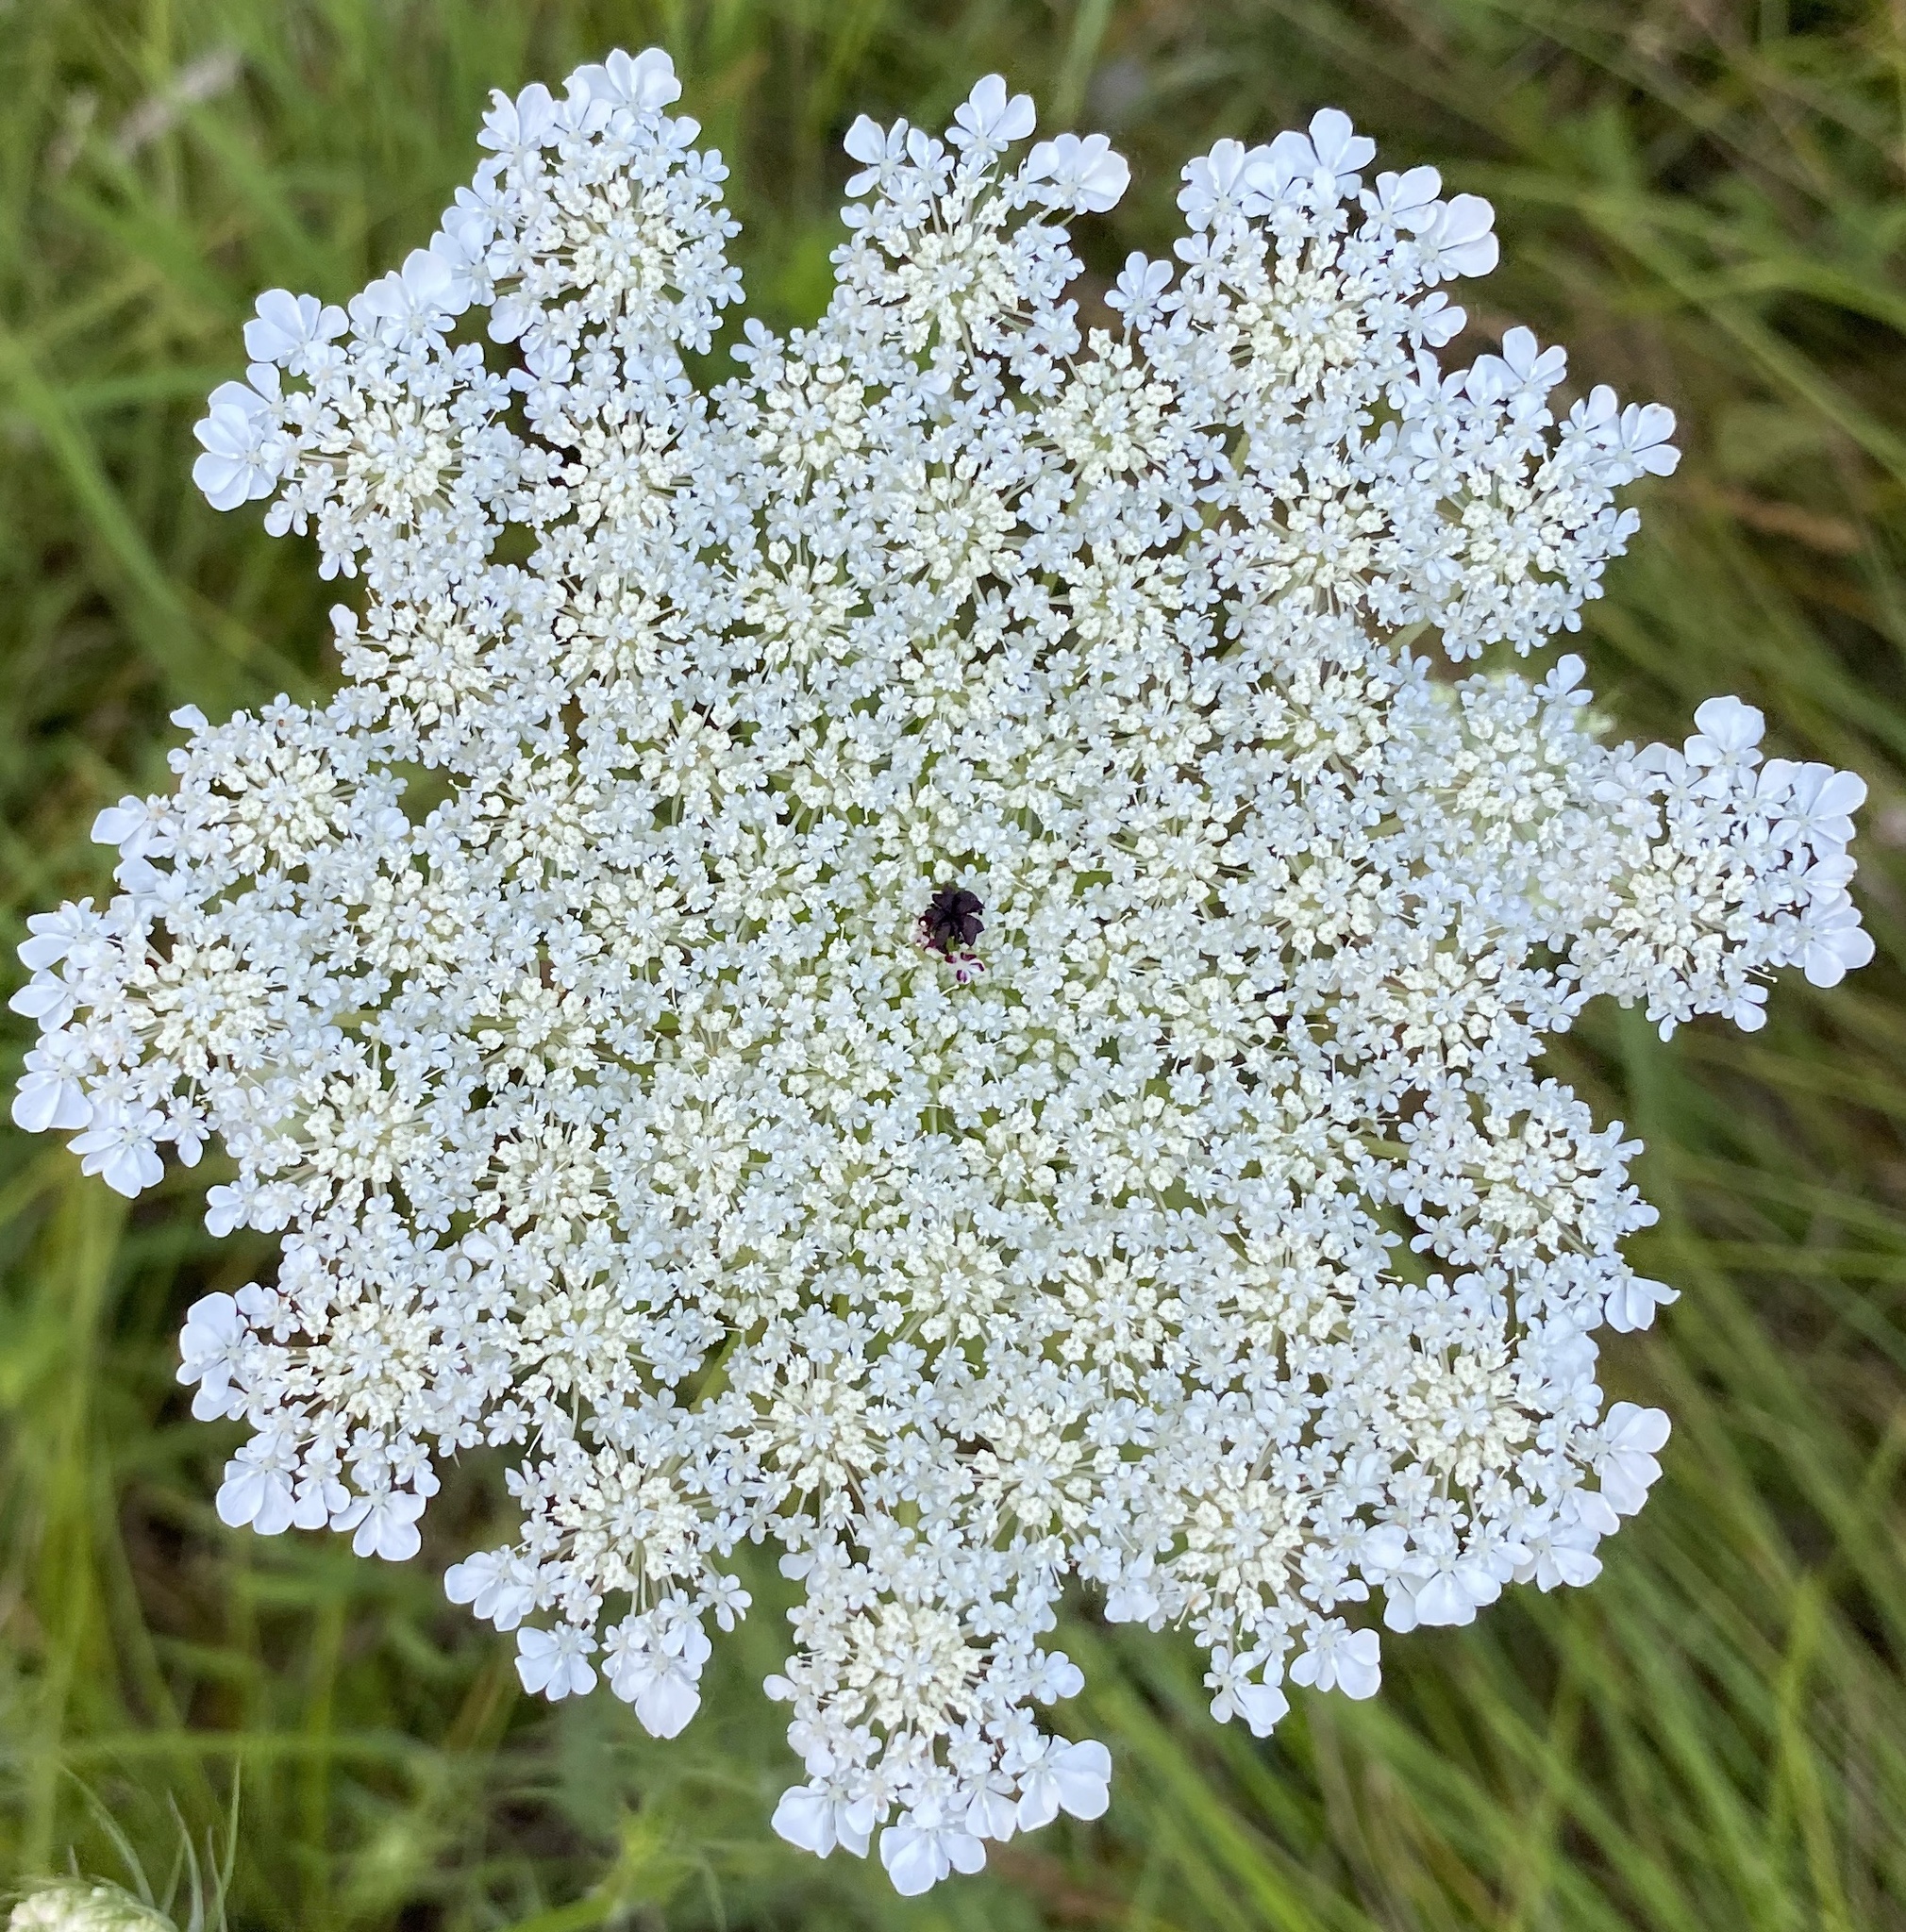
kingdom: Plantae
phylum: Tracheophyta
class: Magnoliopsida
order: Apiales
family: Apiaceae
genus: Daucus
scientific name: Daucus carota
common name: Wild carrot
